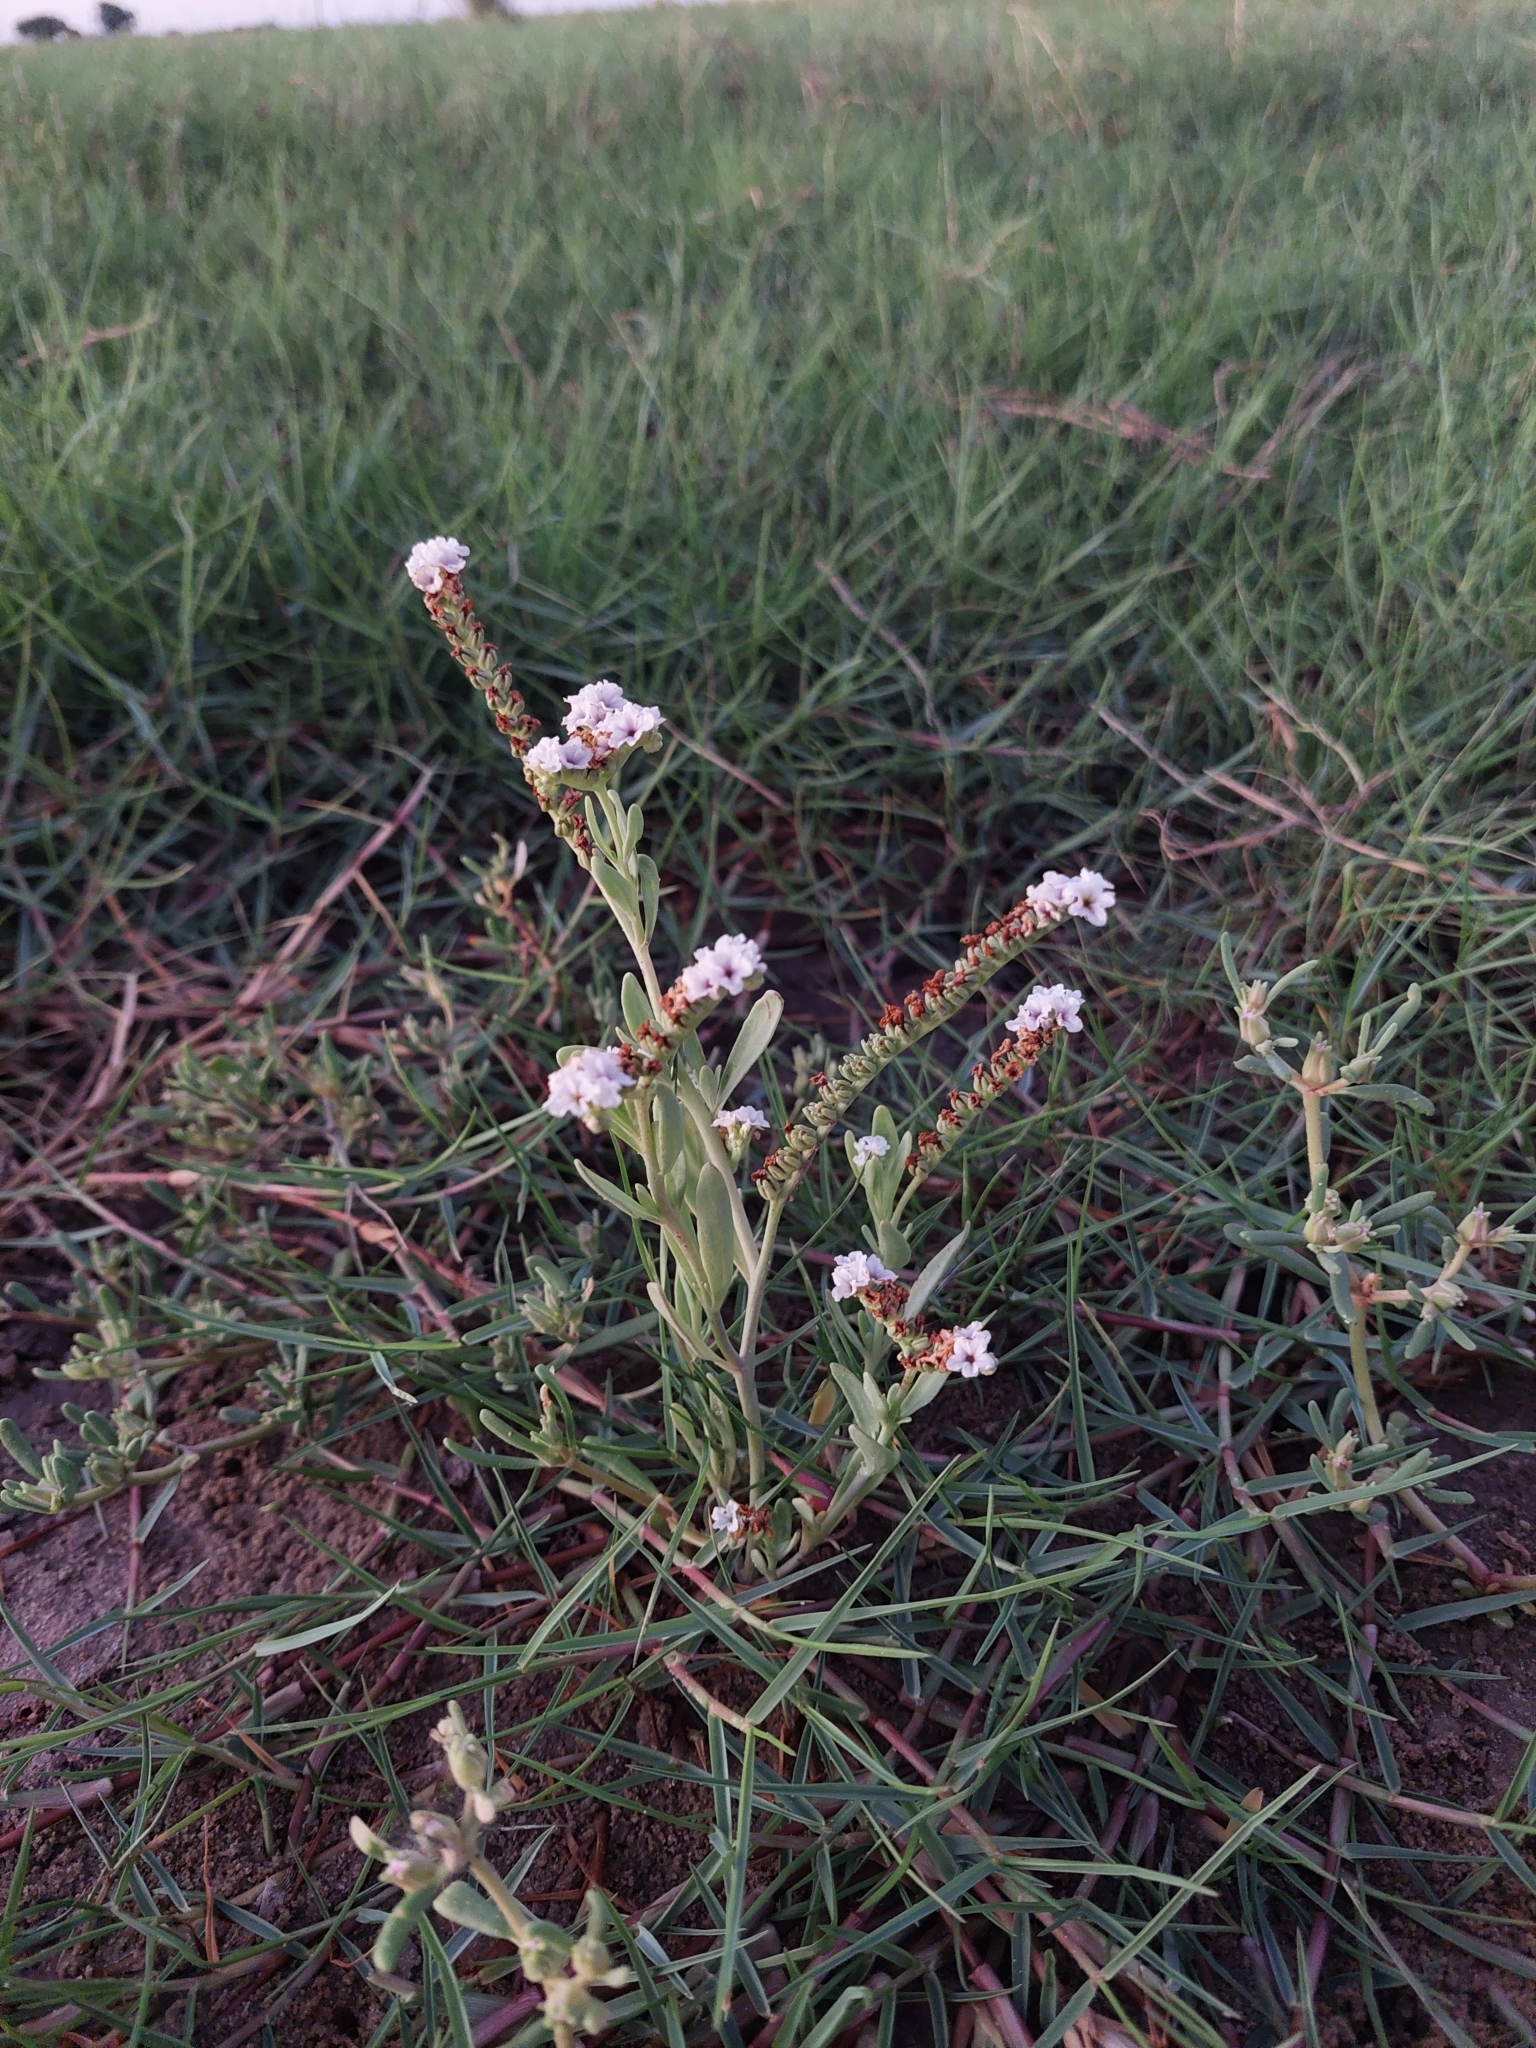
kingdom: Plantae
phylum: Tracheophyta
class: Magnoliopsida
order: Boraginales
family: Heliotropiaceae
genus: Heliotropium
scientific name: Heliotropium curassavicum
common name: Seaside heliotrope
